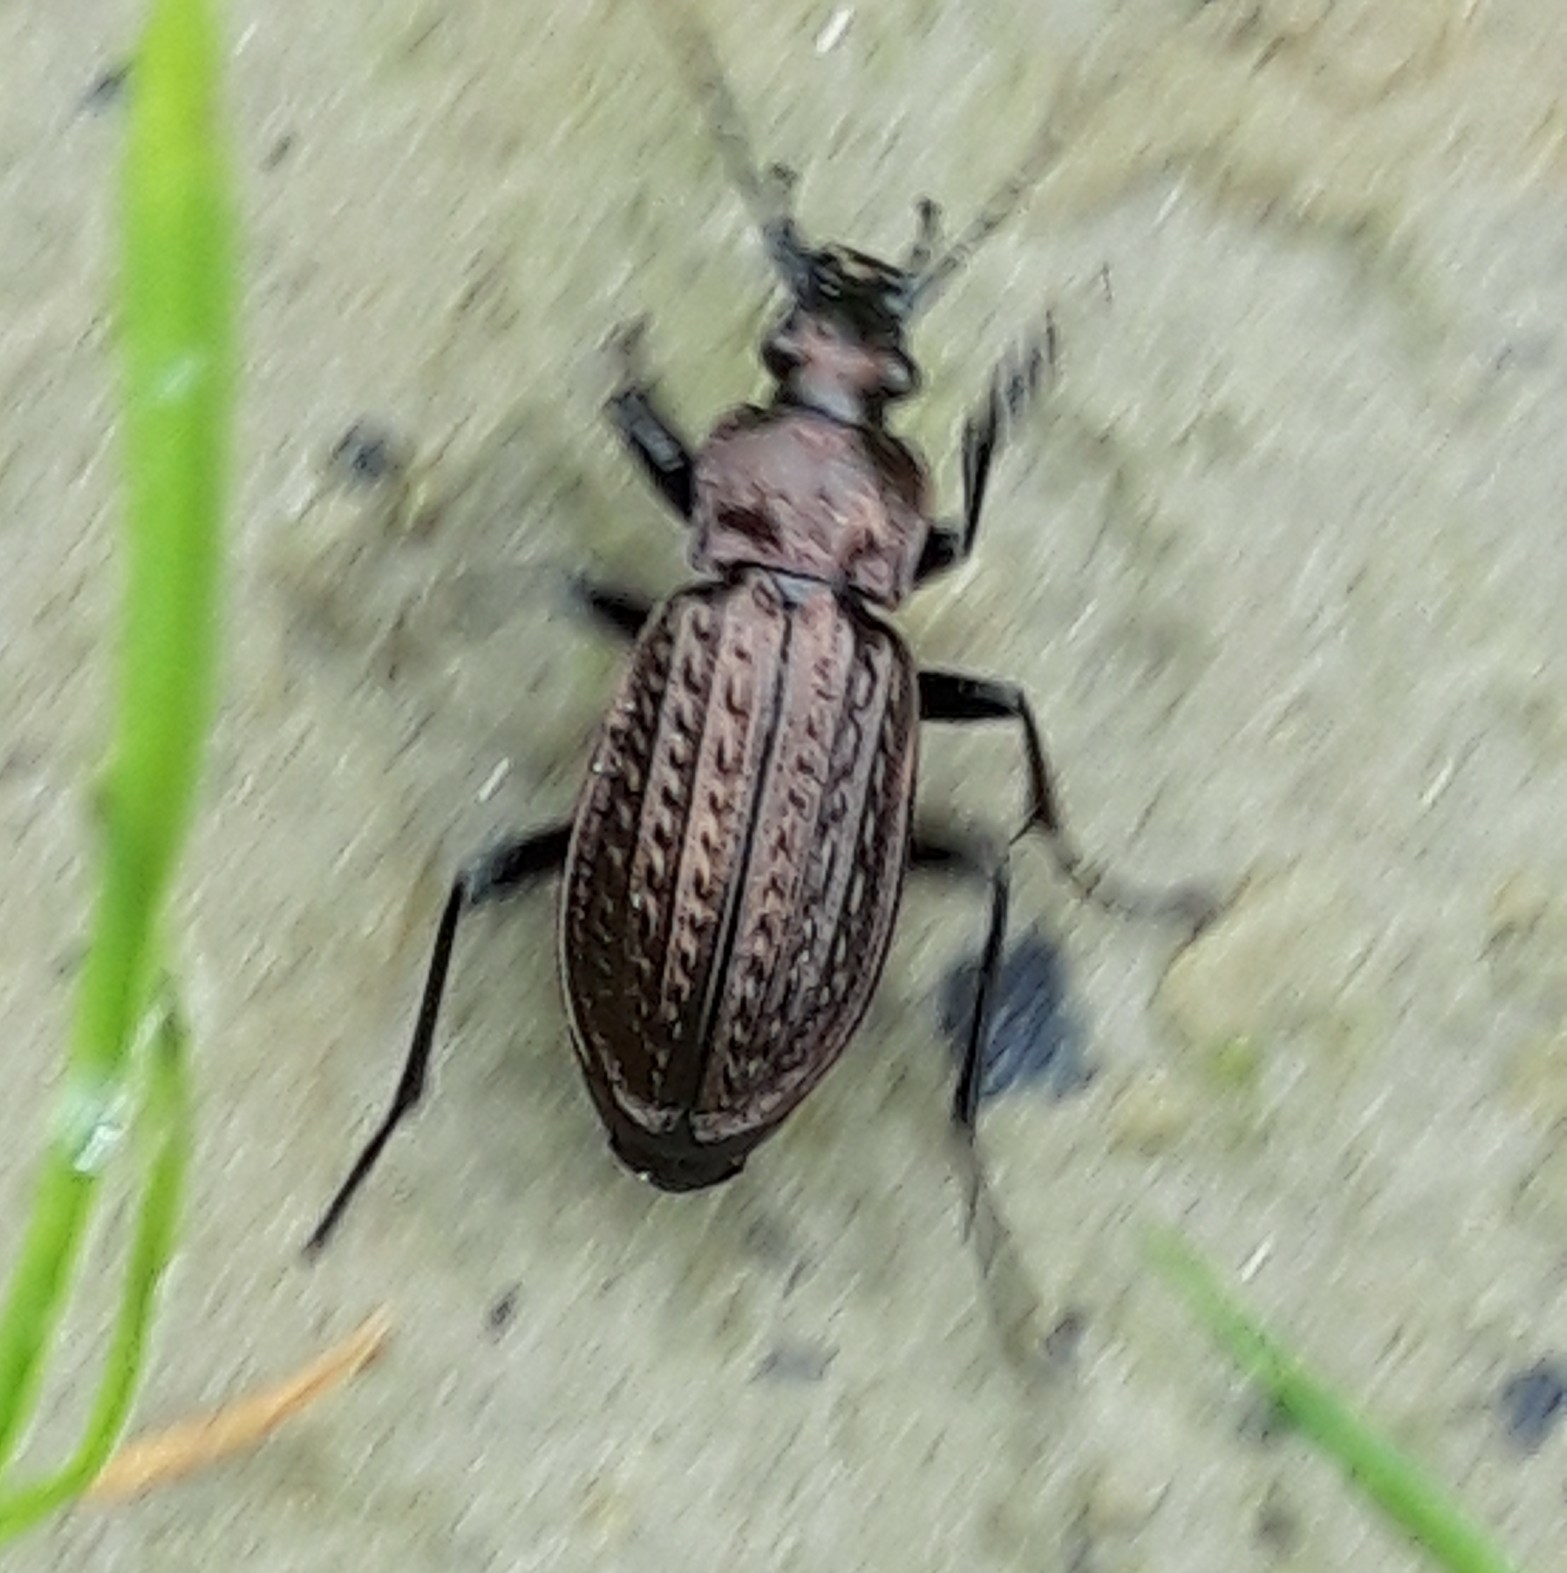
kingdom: Animalia
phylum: Arthropoda
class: Insecta
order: Coleoptera
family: Carabidae
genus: Carabus
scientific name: Carabus granulatus
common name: Granulate ground beetle
